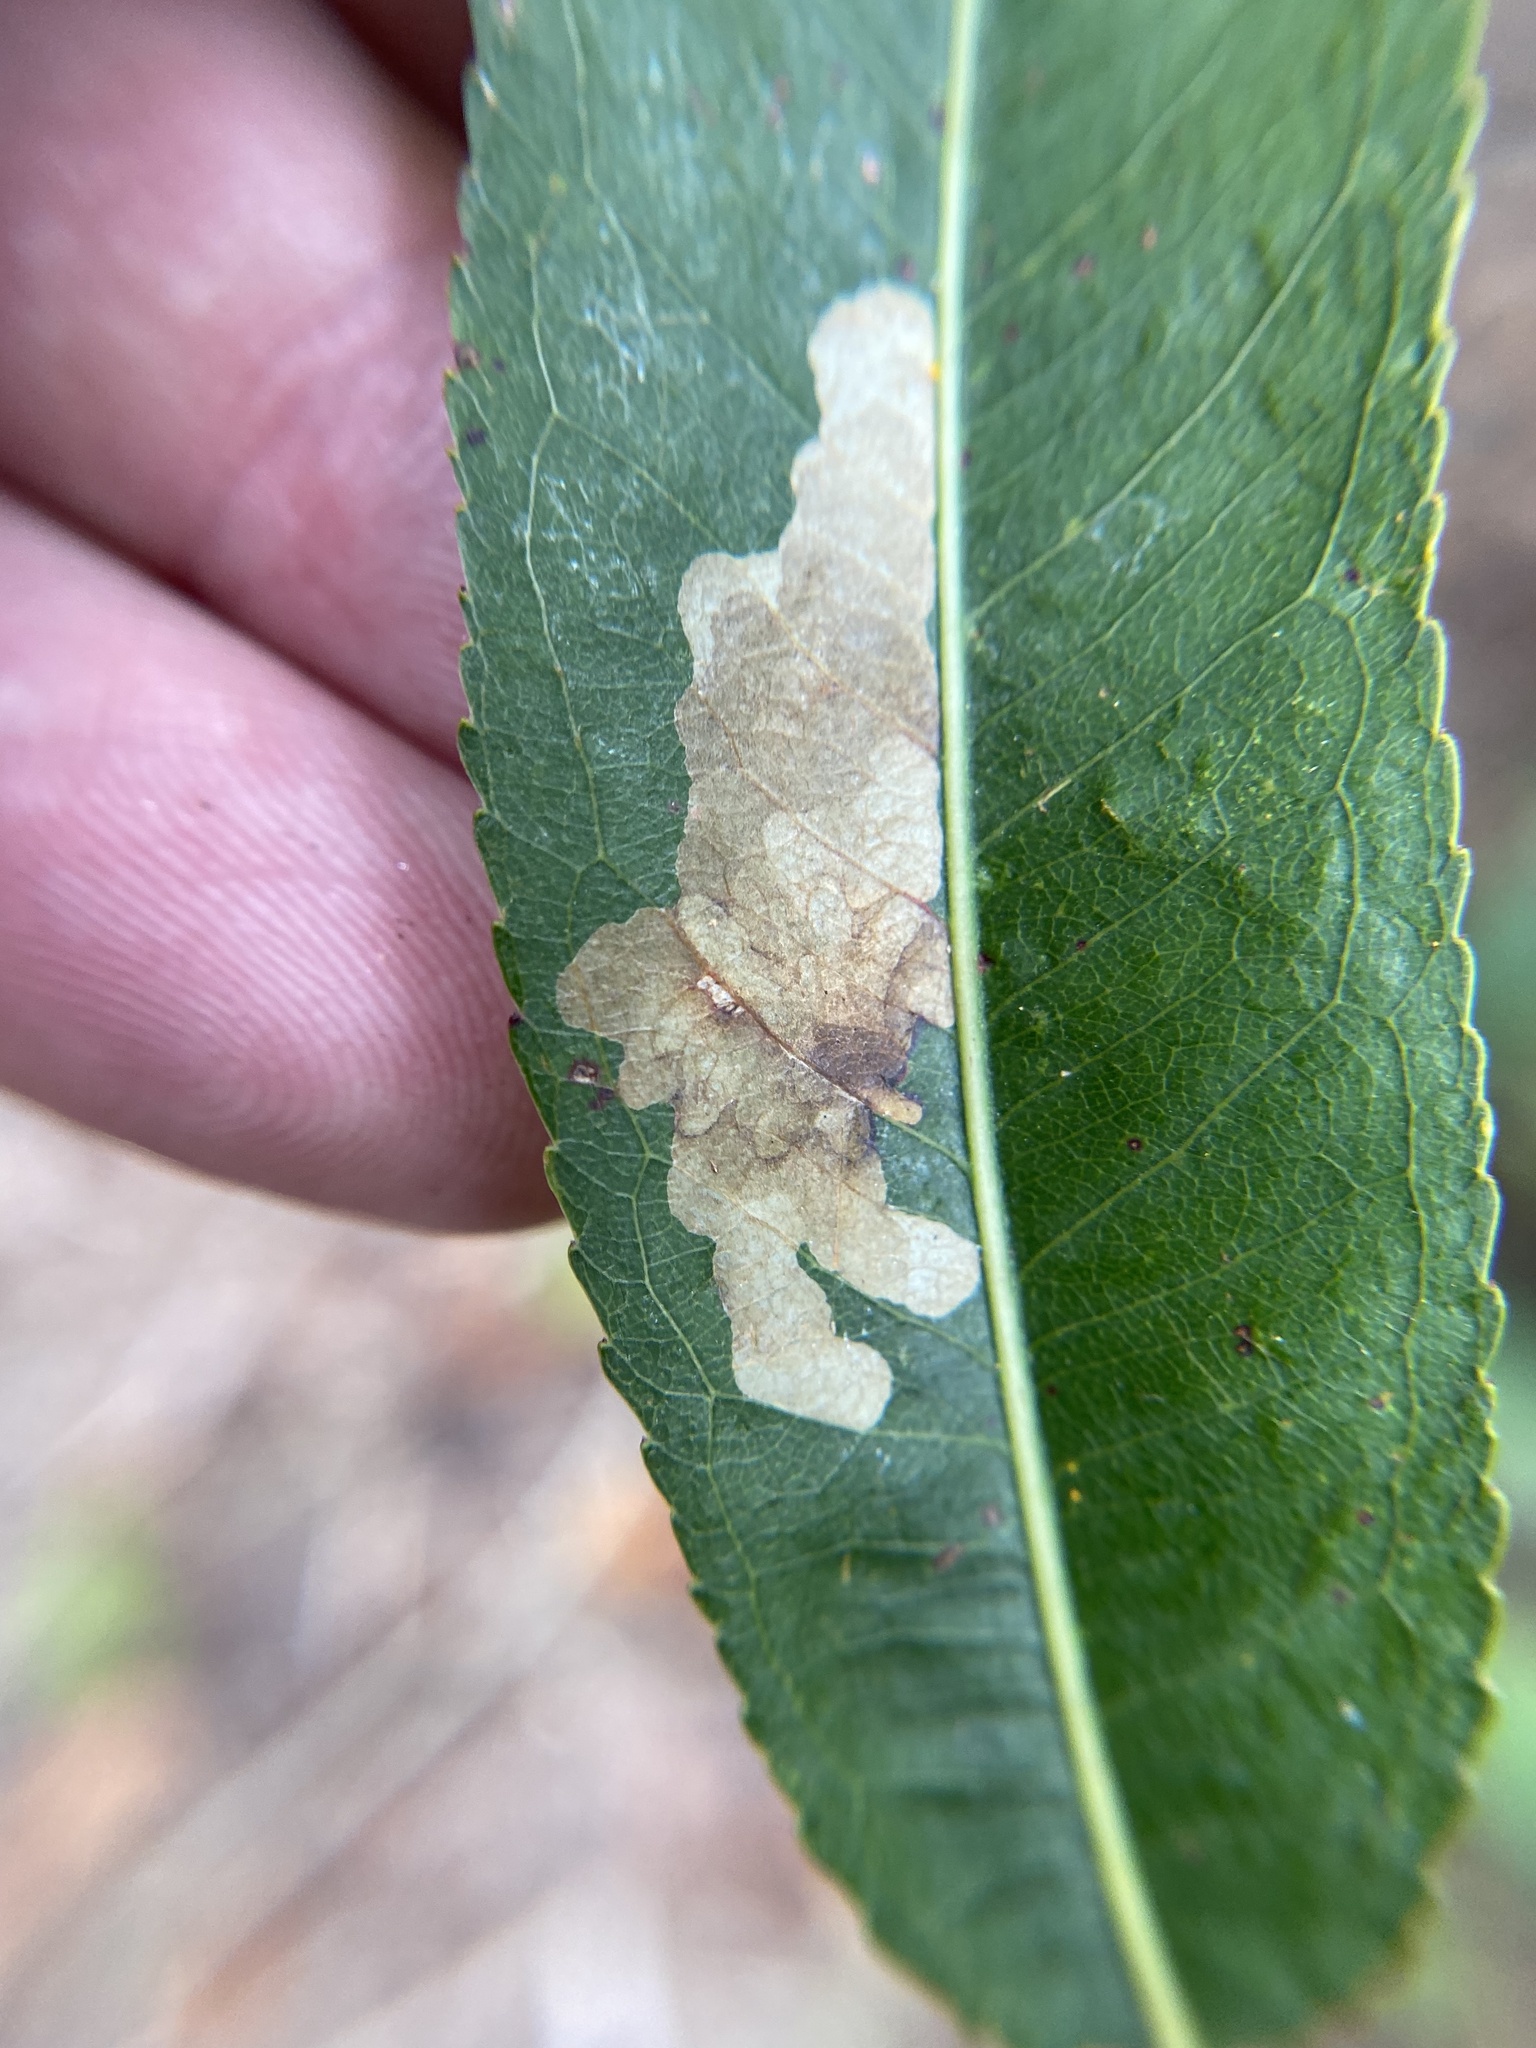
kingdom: Animalia
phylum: Arthropoda
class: Insecta
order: Lepidoptera
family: Gracillariidae
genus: Micrurapteryx
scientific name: Micrurapteryx salicifoliella
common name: Willow leaf blotch miner moth
